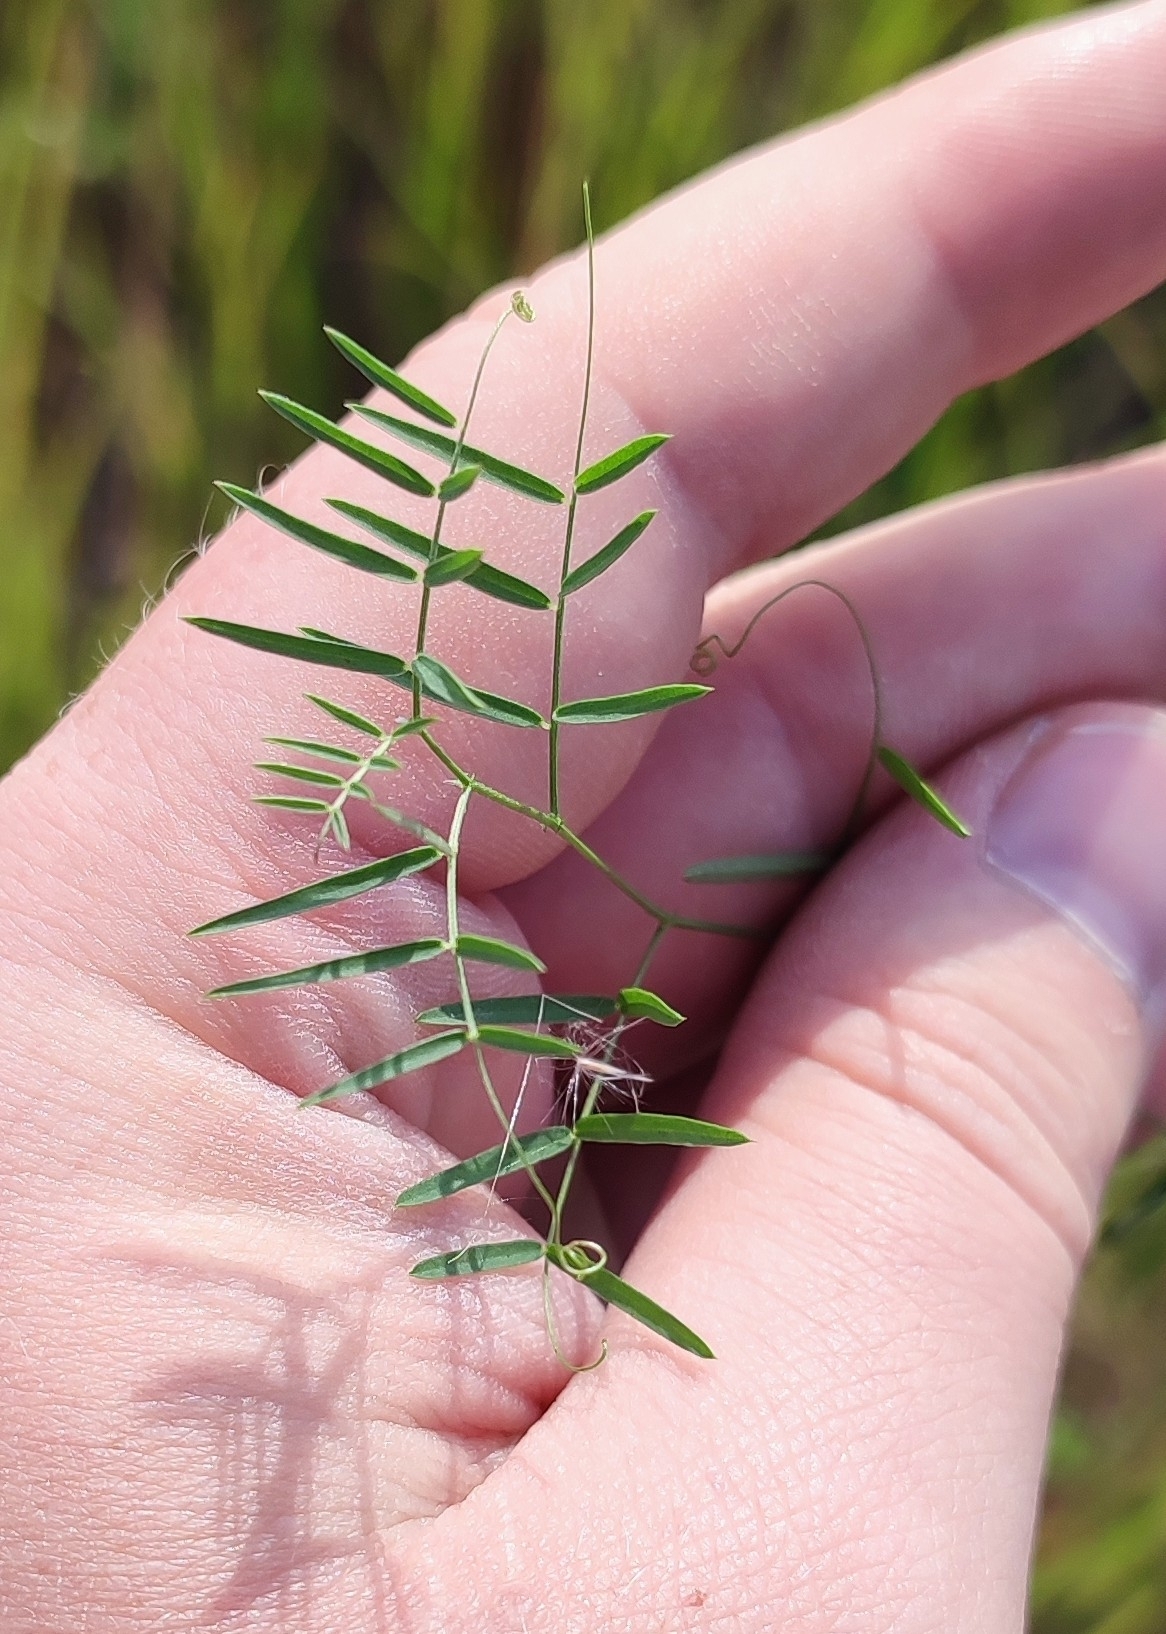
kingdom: Plantae
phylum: Tracheophyta
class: Magnoliopsida
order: Fabales
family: Fabaceae
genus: Vicia
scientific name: Vicia cracca
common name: Bird vetch
